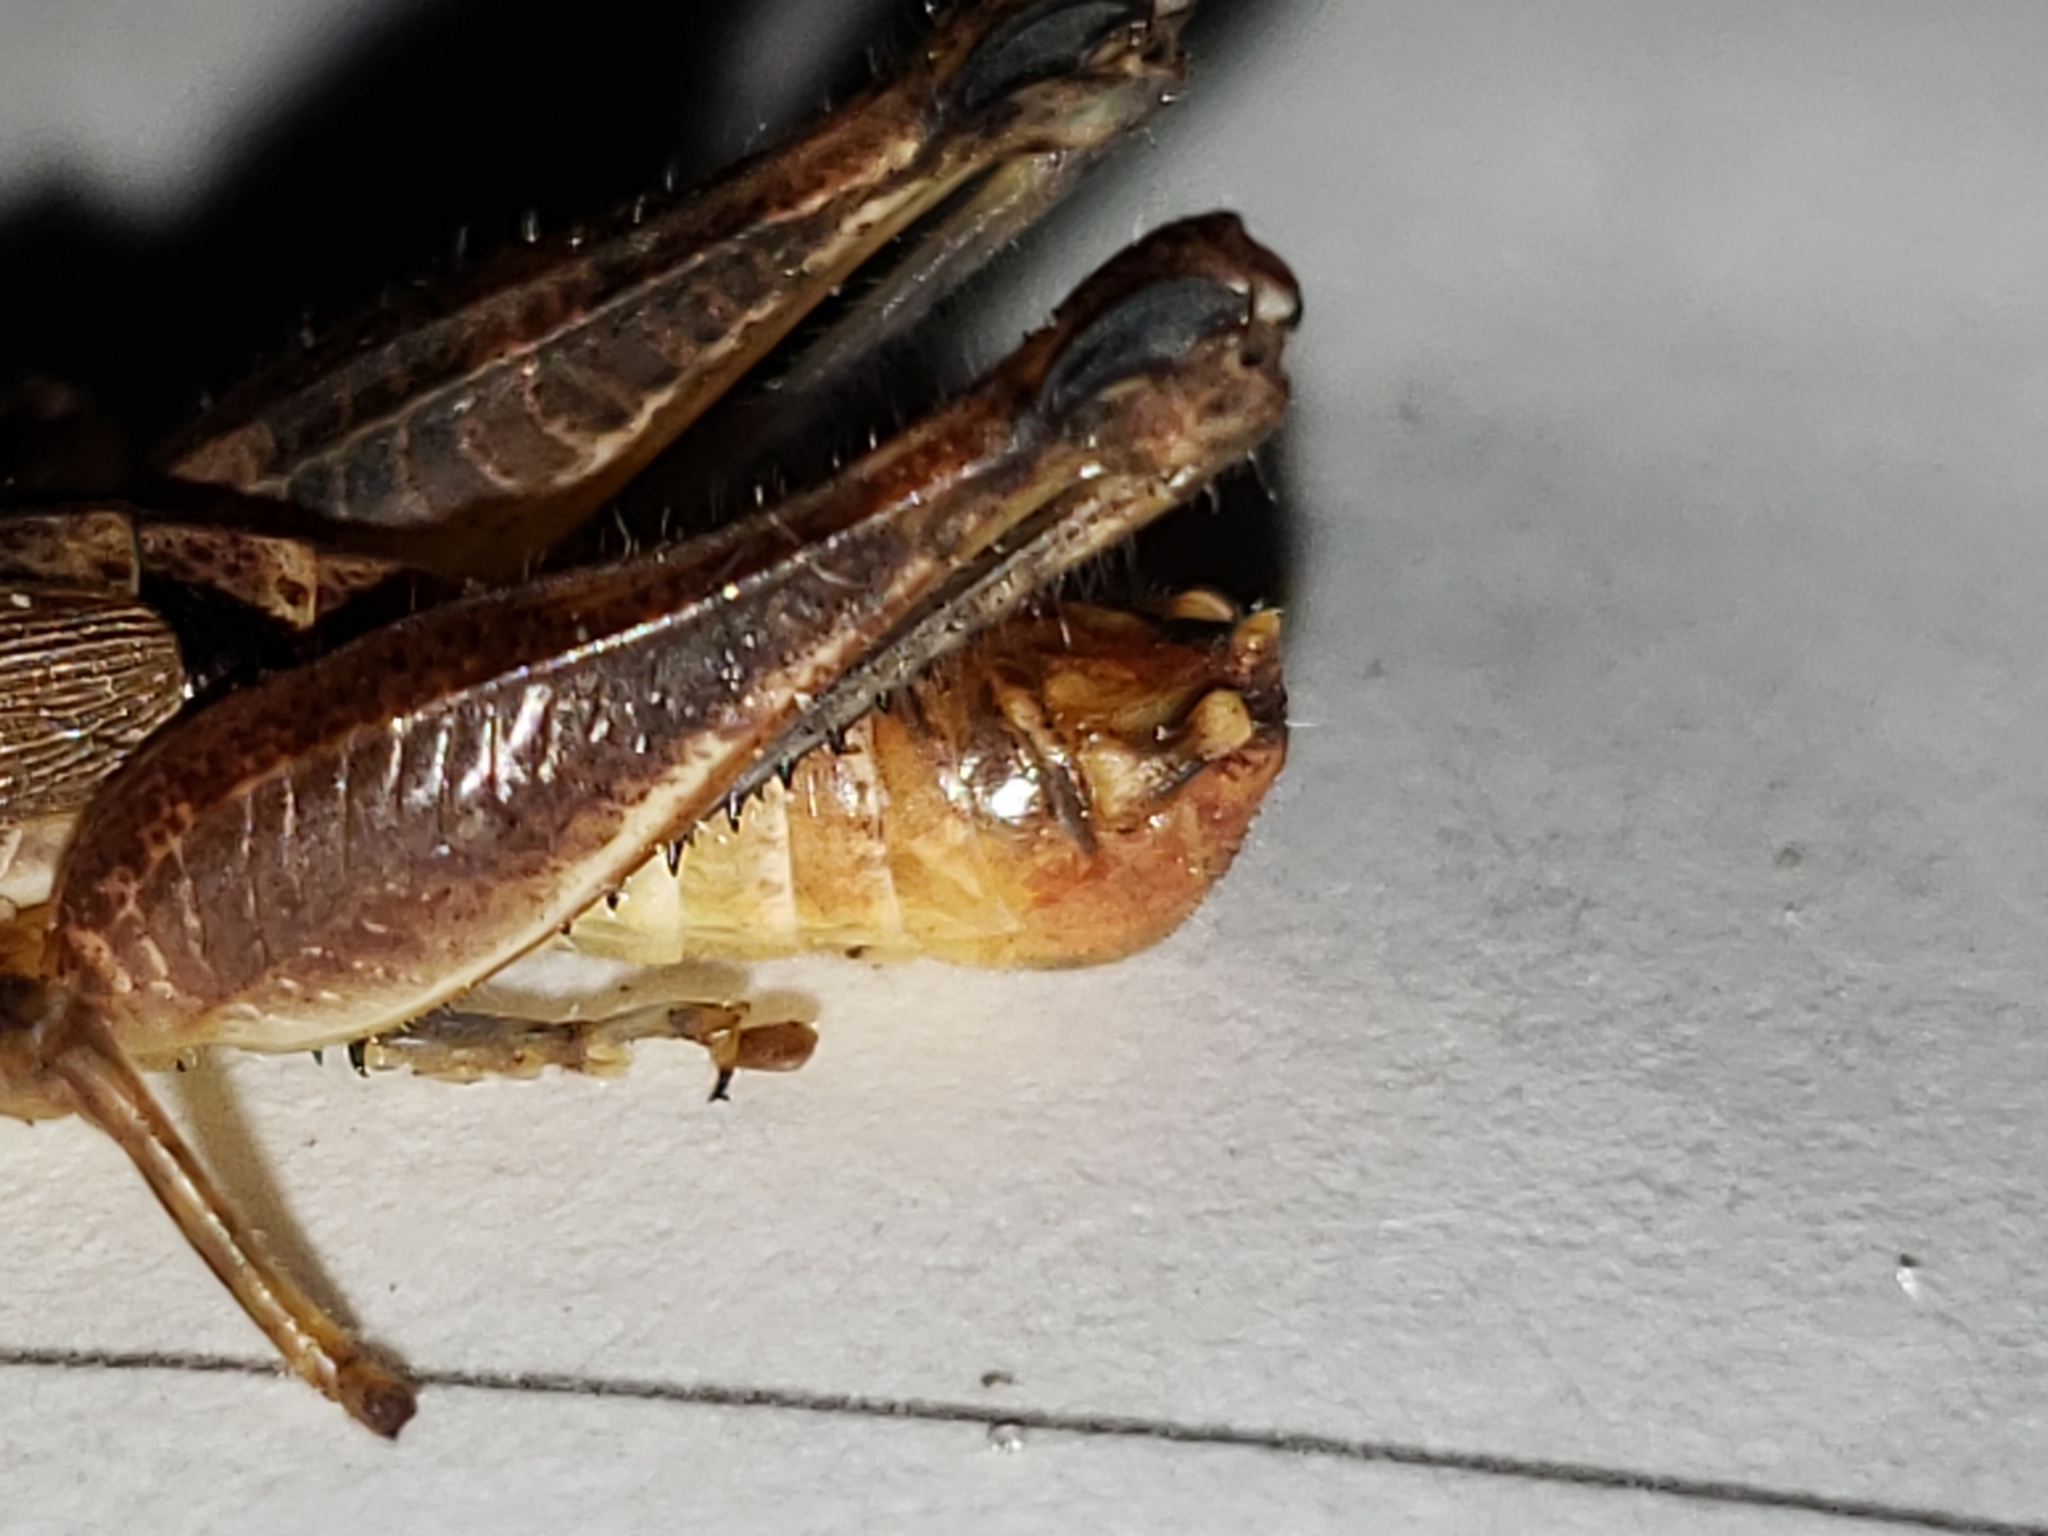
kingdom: Animalia
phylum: Arthropoda
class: Insecta
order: Orthoptera
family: Acrididae
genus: Melanoplus
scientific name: Melanoplus rotundipennis
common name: Round-winged locust
